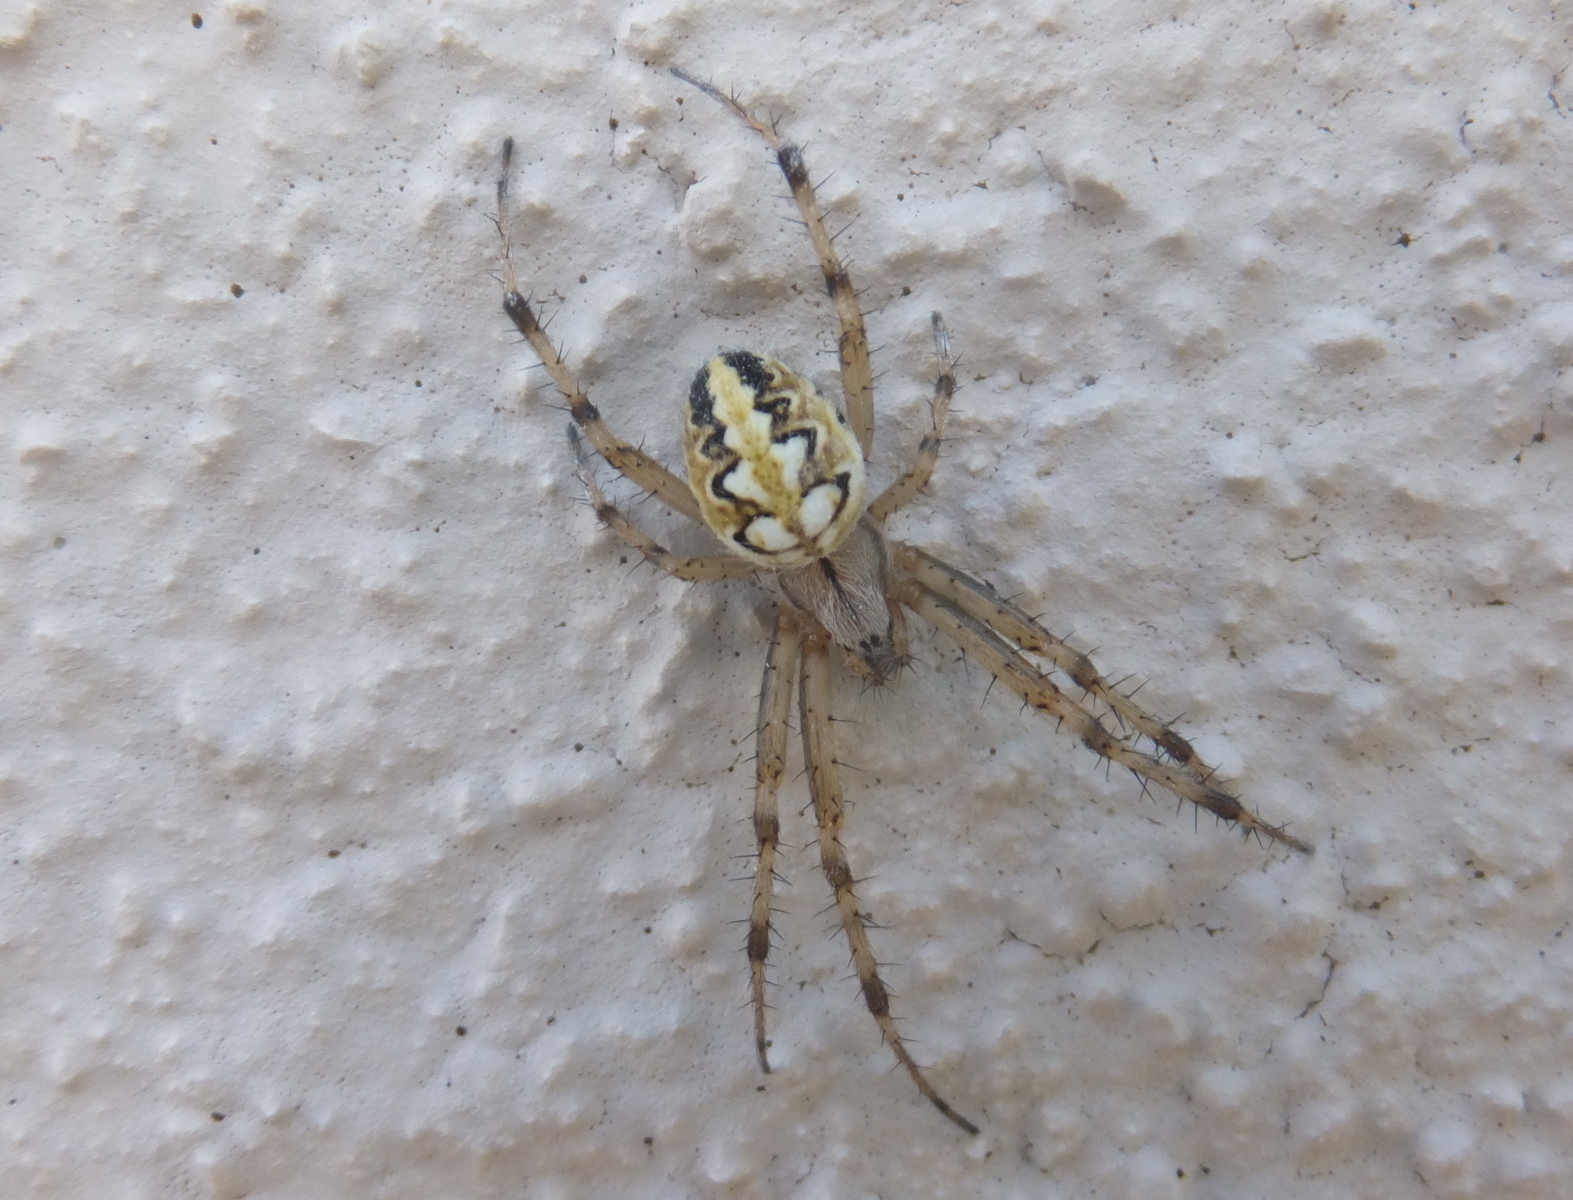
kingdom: Animalia
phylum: Arthropoda
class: Arachnida
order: Araneae
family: Araneidae
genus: Neoscona
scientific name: Neoscona adianta
